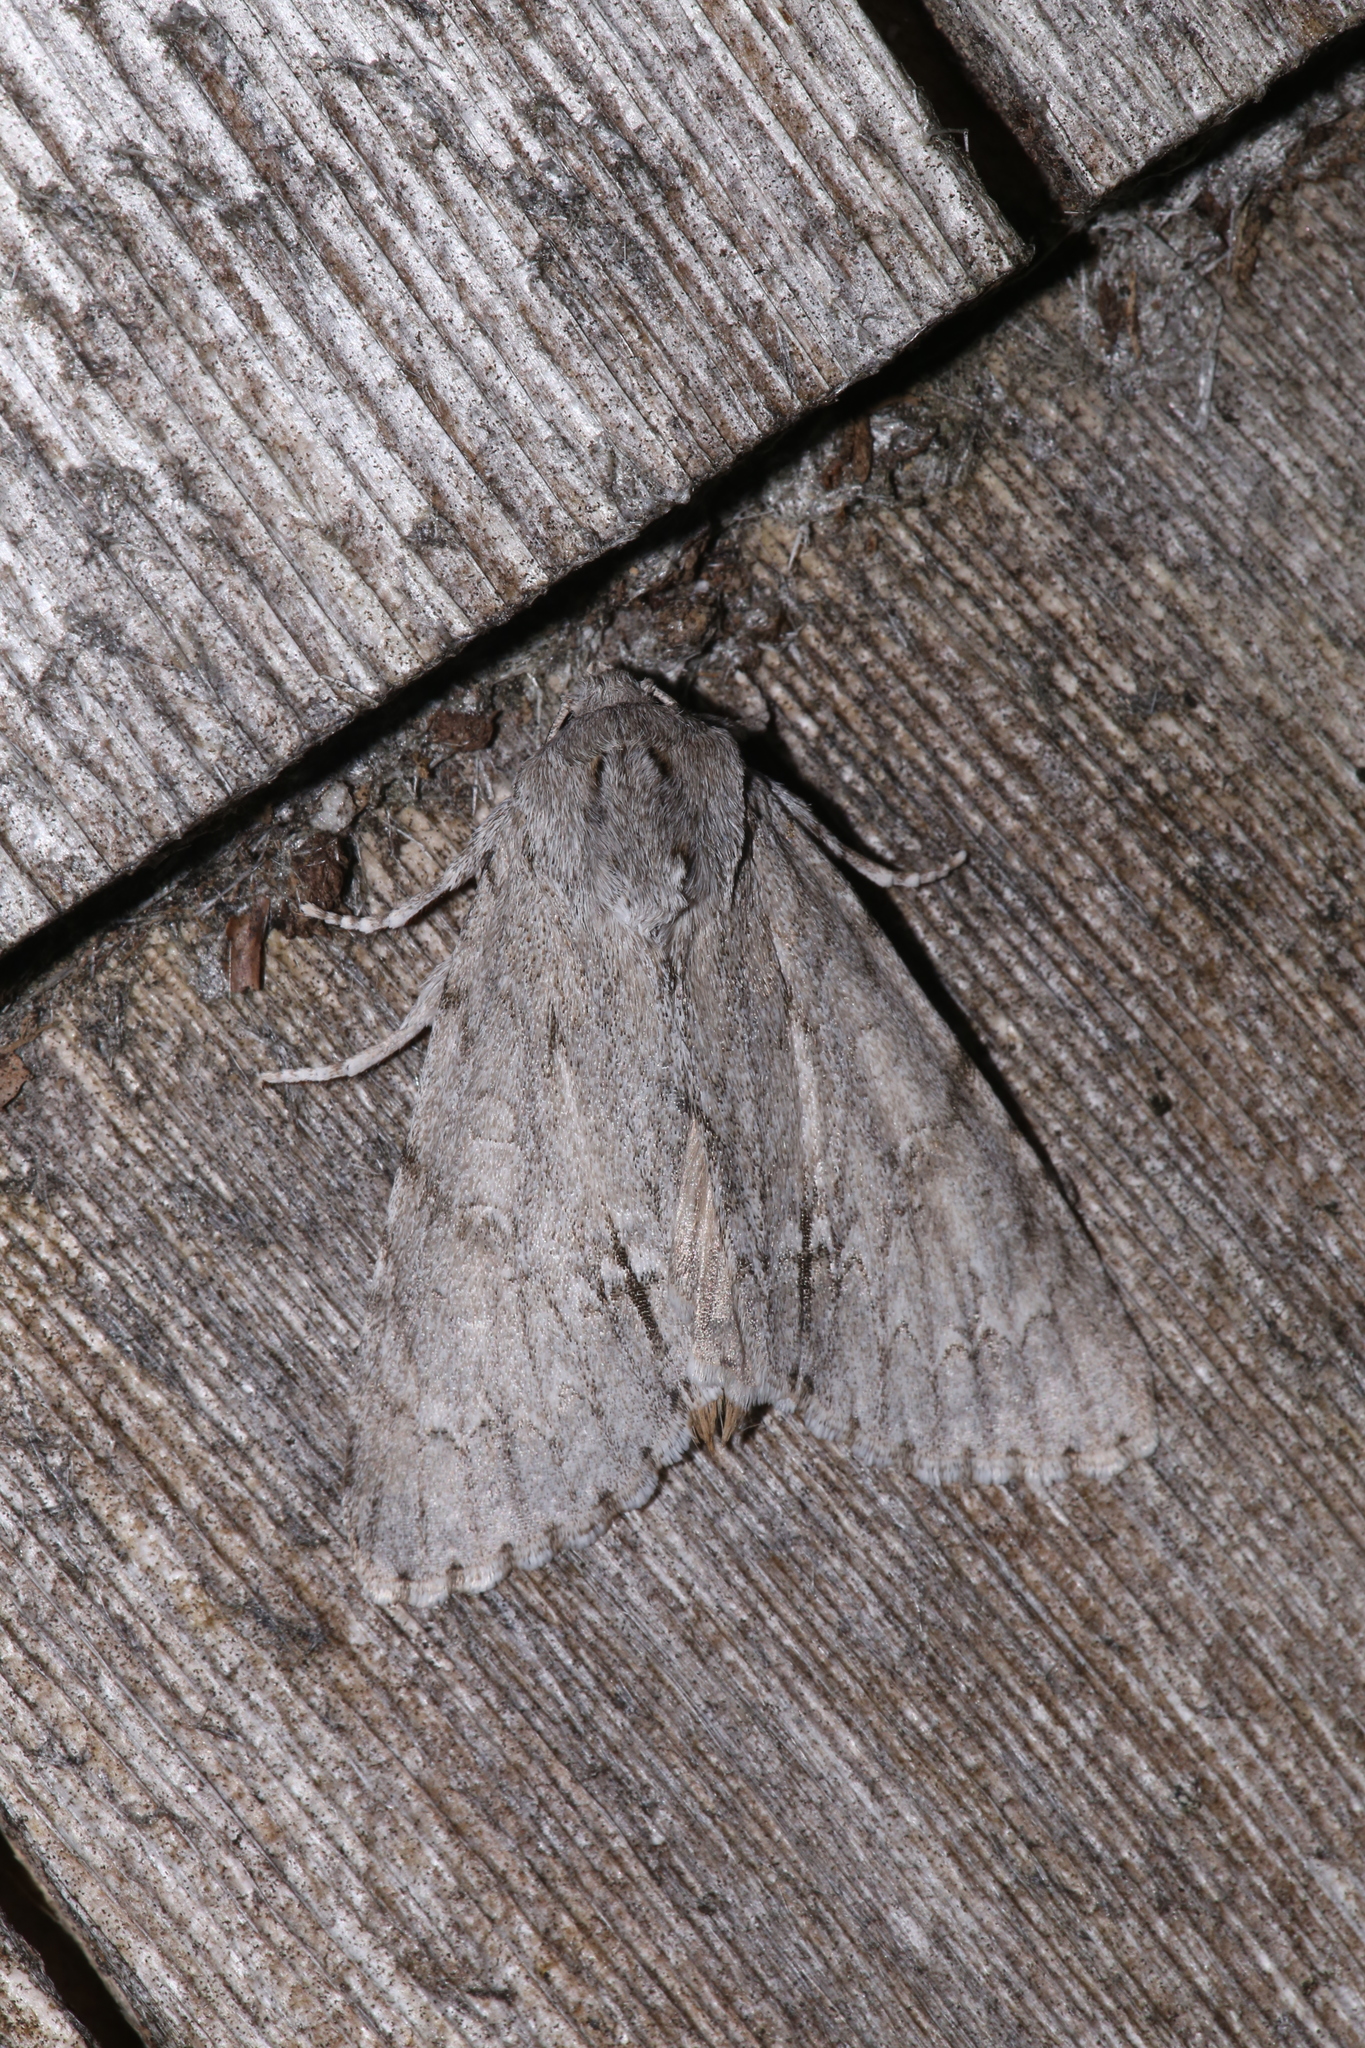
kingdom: Animalia
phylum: Arthropoda
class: Insecta
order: Lepidoptera
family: Noctuidae
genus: Acronicta
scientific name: Acronicta americana
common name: American dagger
